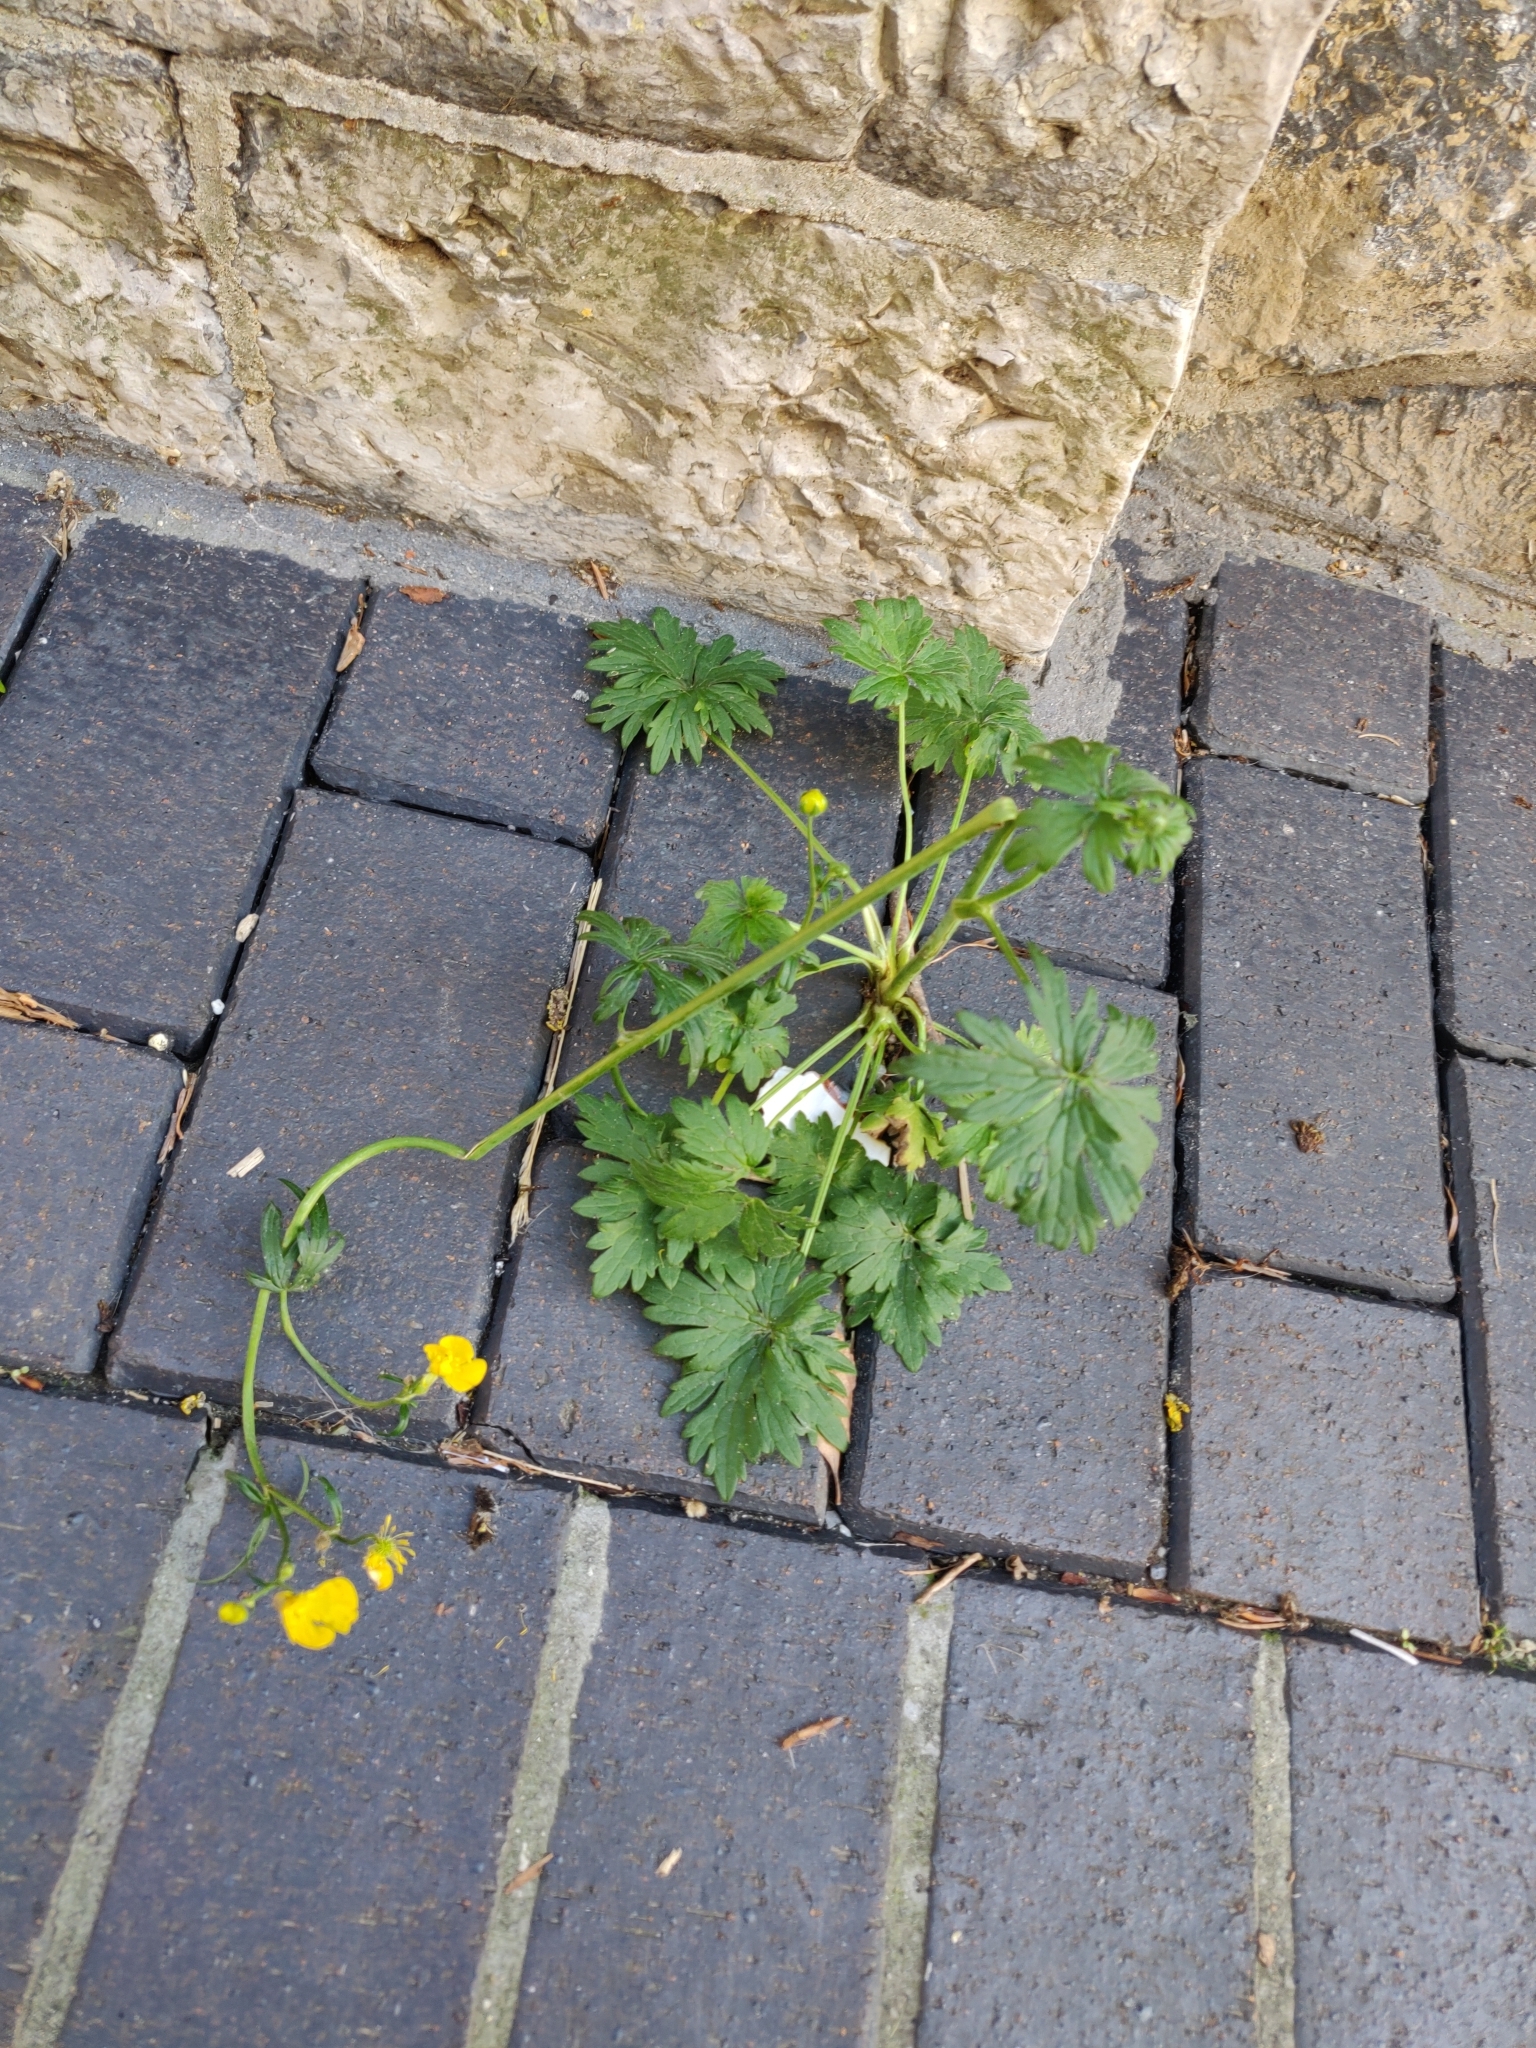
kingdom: Plantae
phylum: Tracheophyta
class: Magnoliopsida
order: Ranunculales
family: Ranunculaceae
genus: Ranunculus
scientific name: Ranunculus repens
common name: Creeping buttercup
